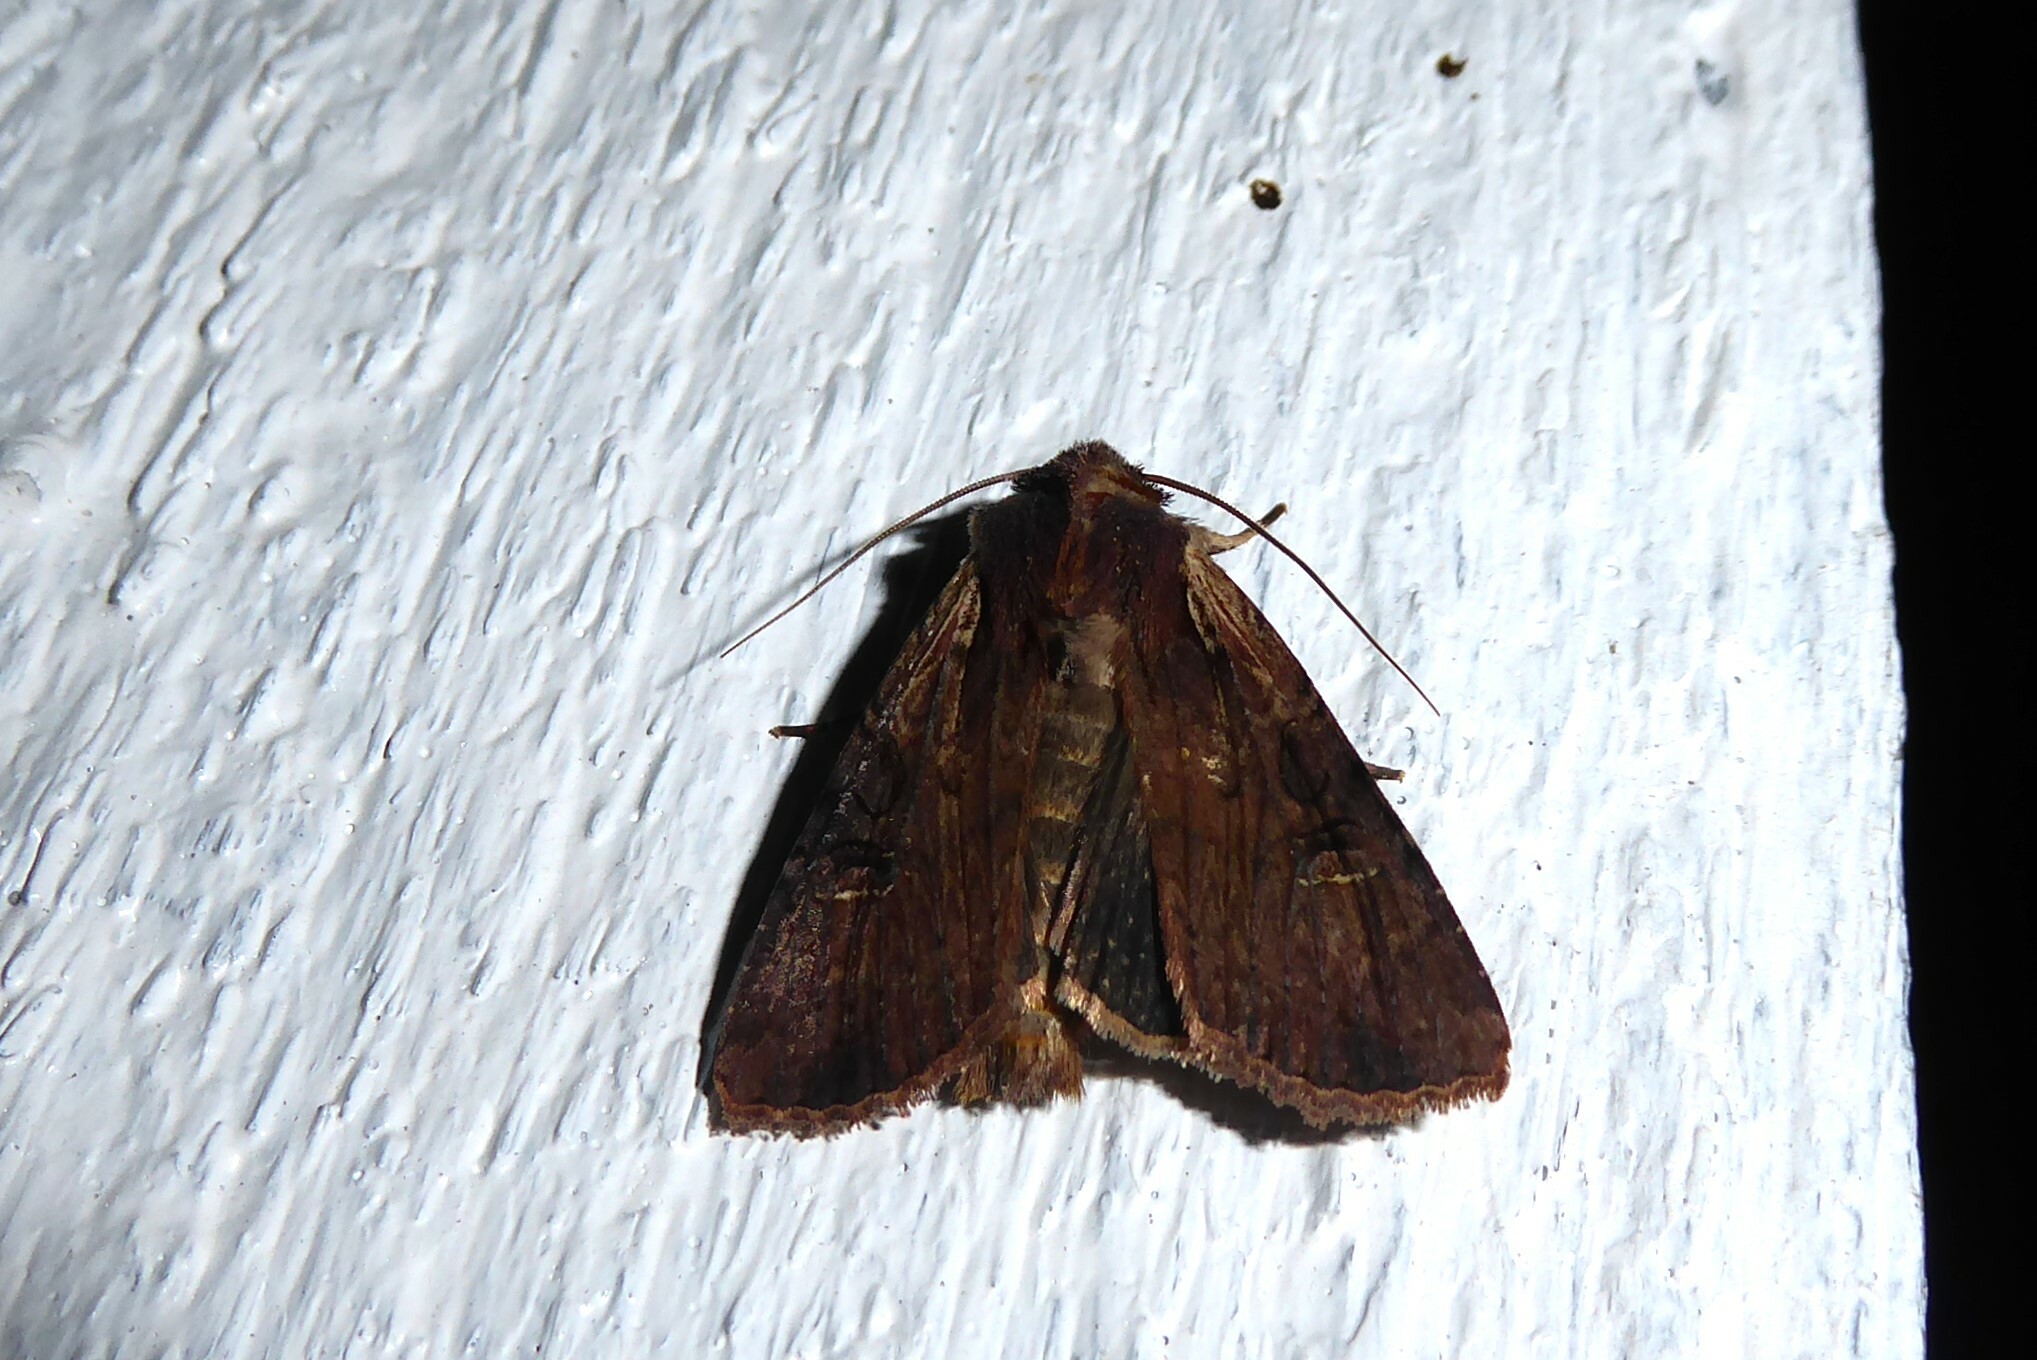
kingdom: Animalia
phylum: Arthropoda
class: Insecta
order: Lepidoptera
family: Noctuidae
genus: Ichneutica
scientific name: Ichneutica omoplaca
